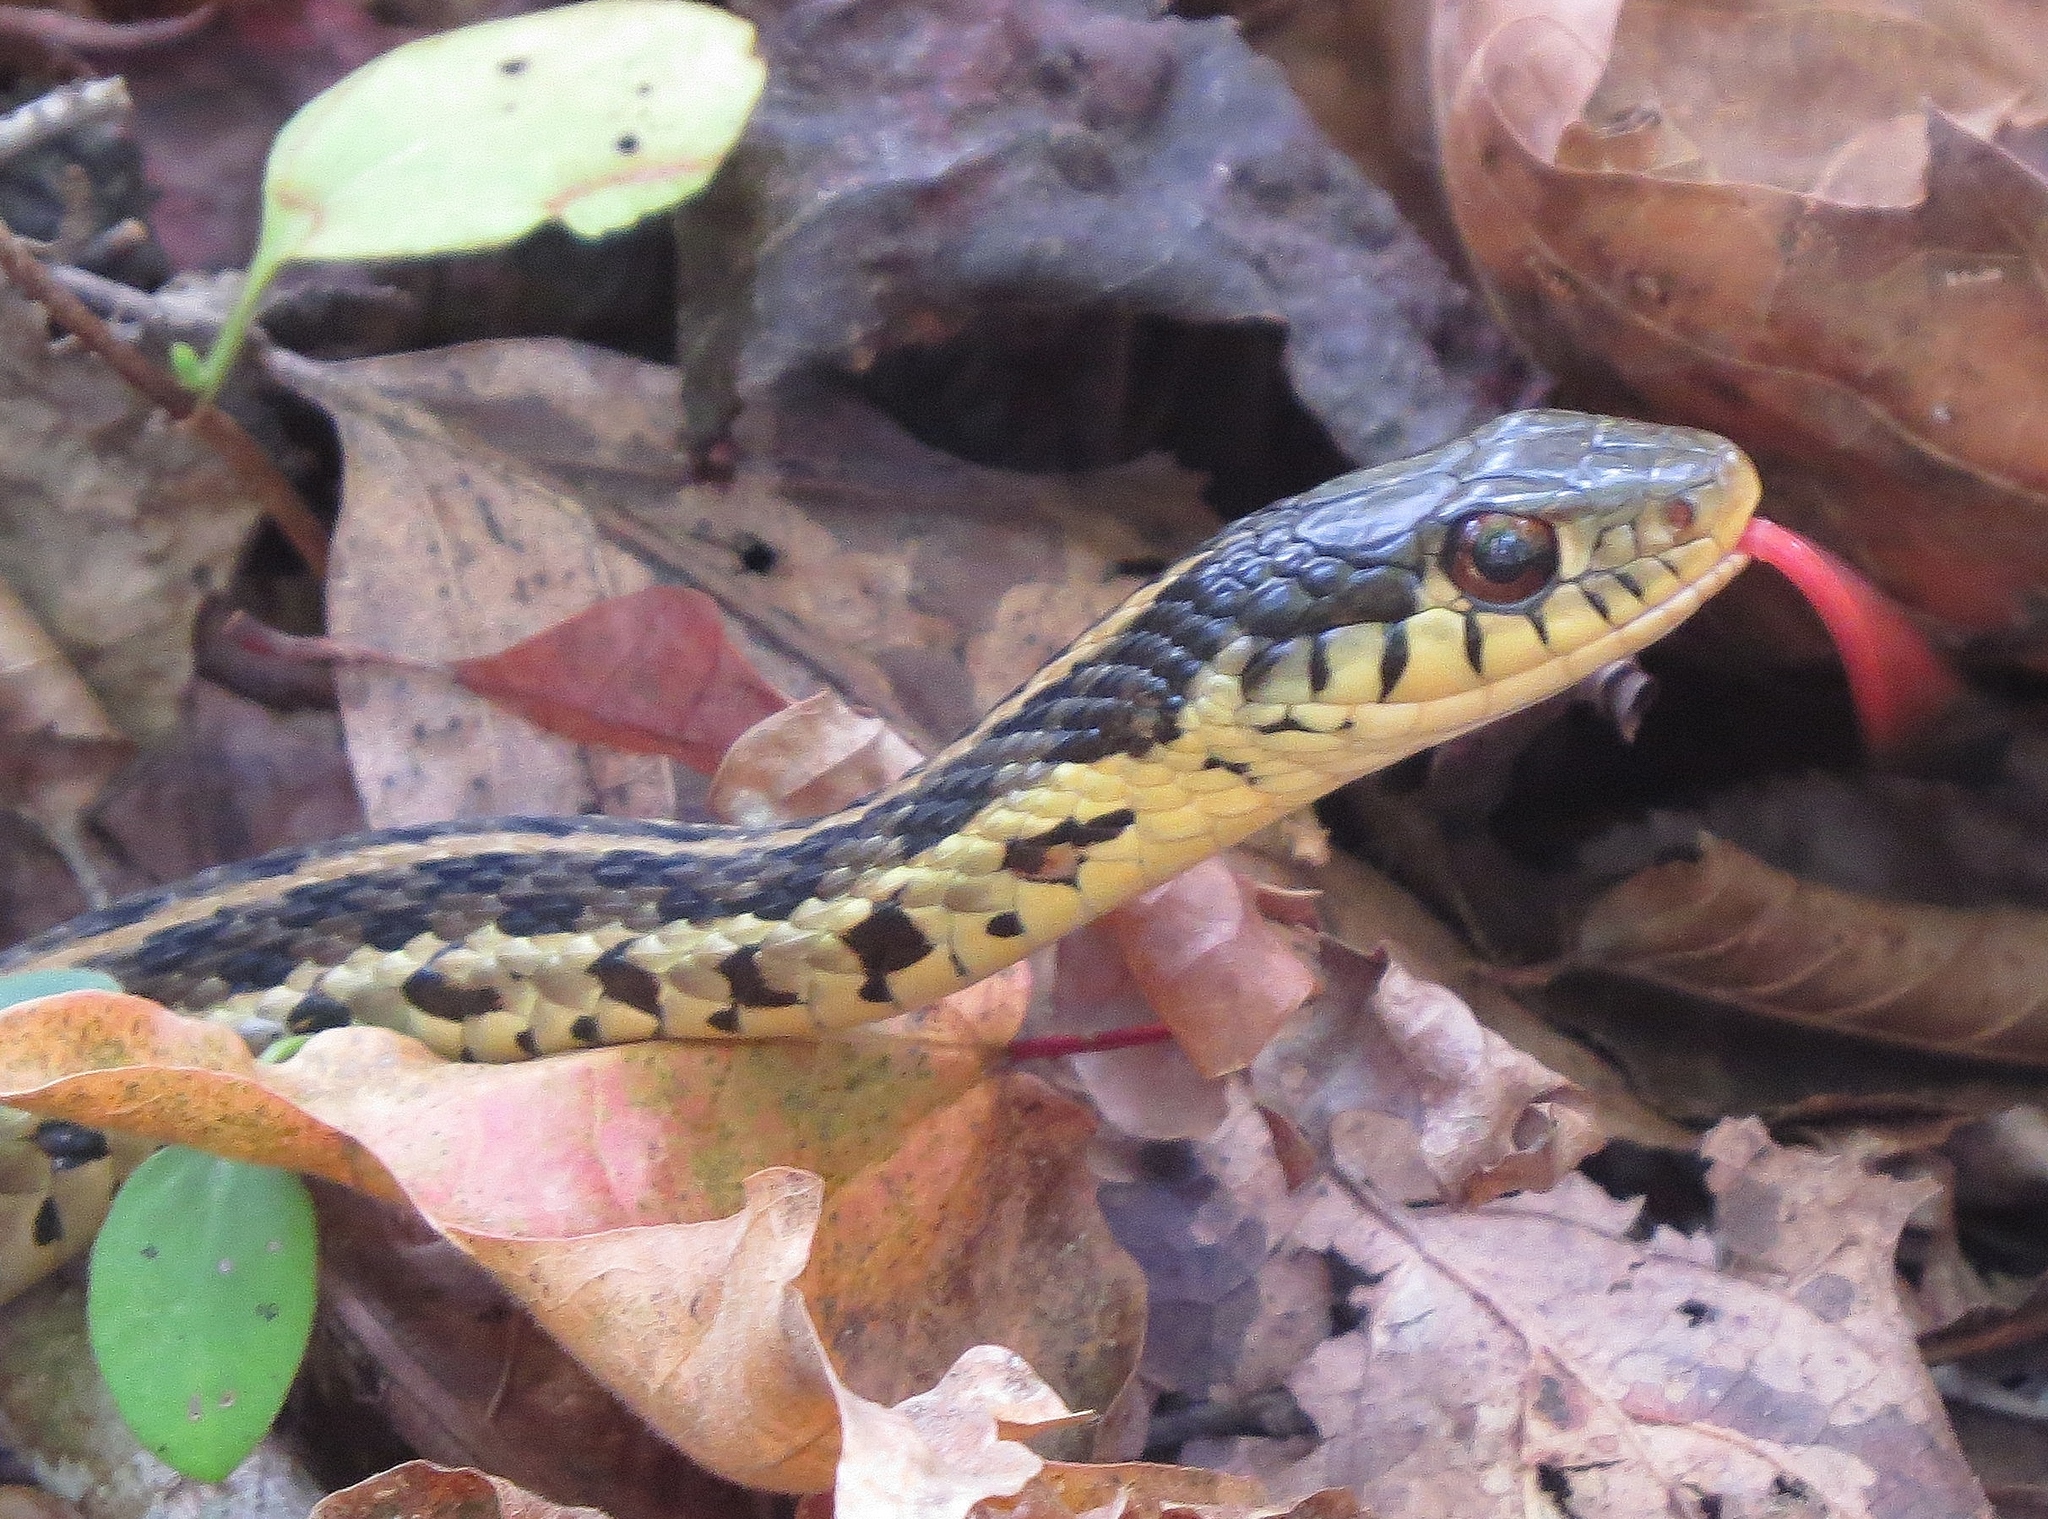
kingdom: Animalia
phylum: Chordata
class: Squamata
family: Colubridae
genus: Thamnophis
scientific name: Thamnophis sirtalis
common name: Common garter snake
